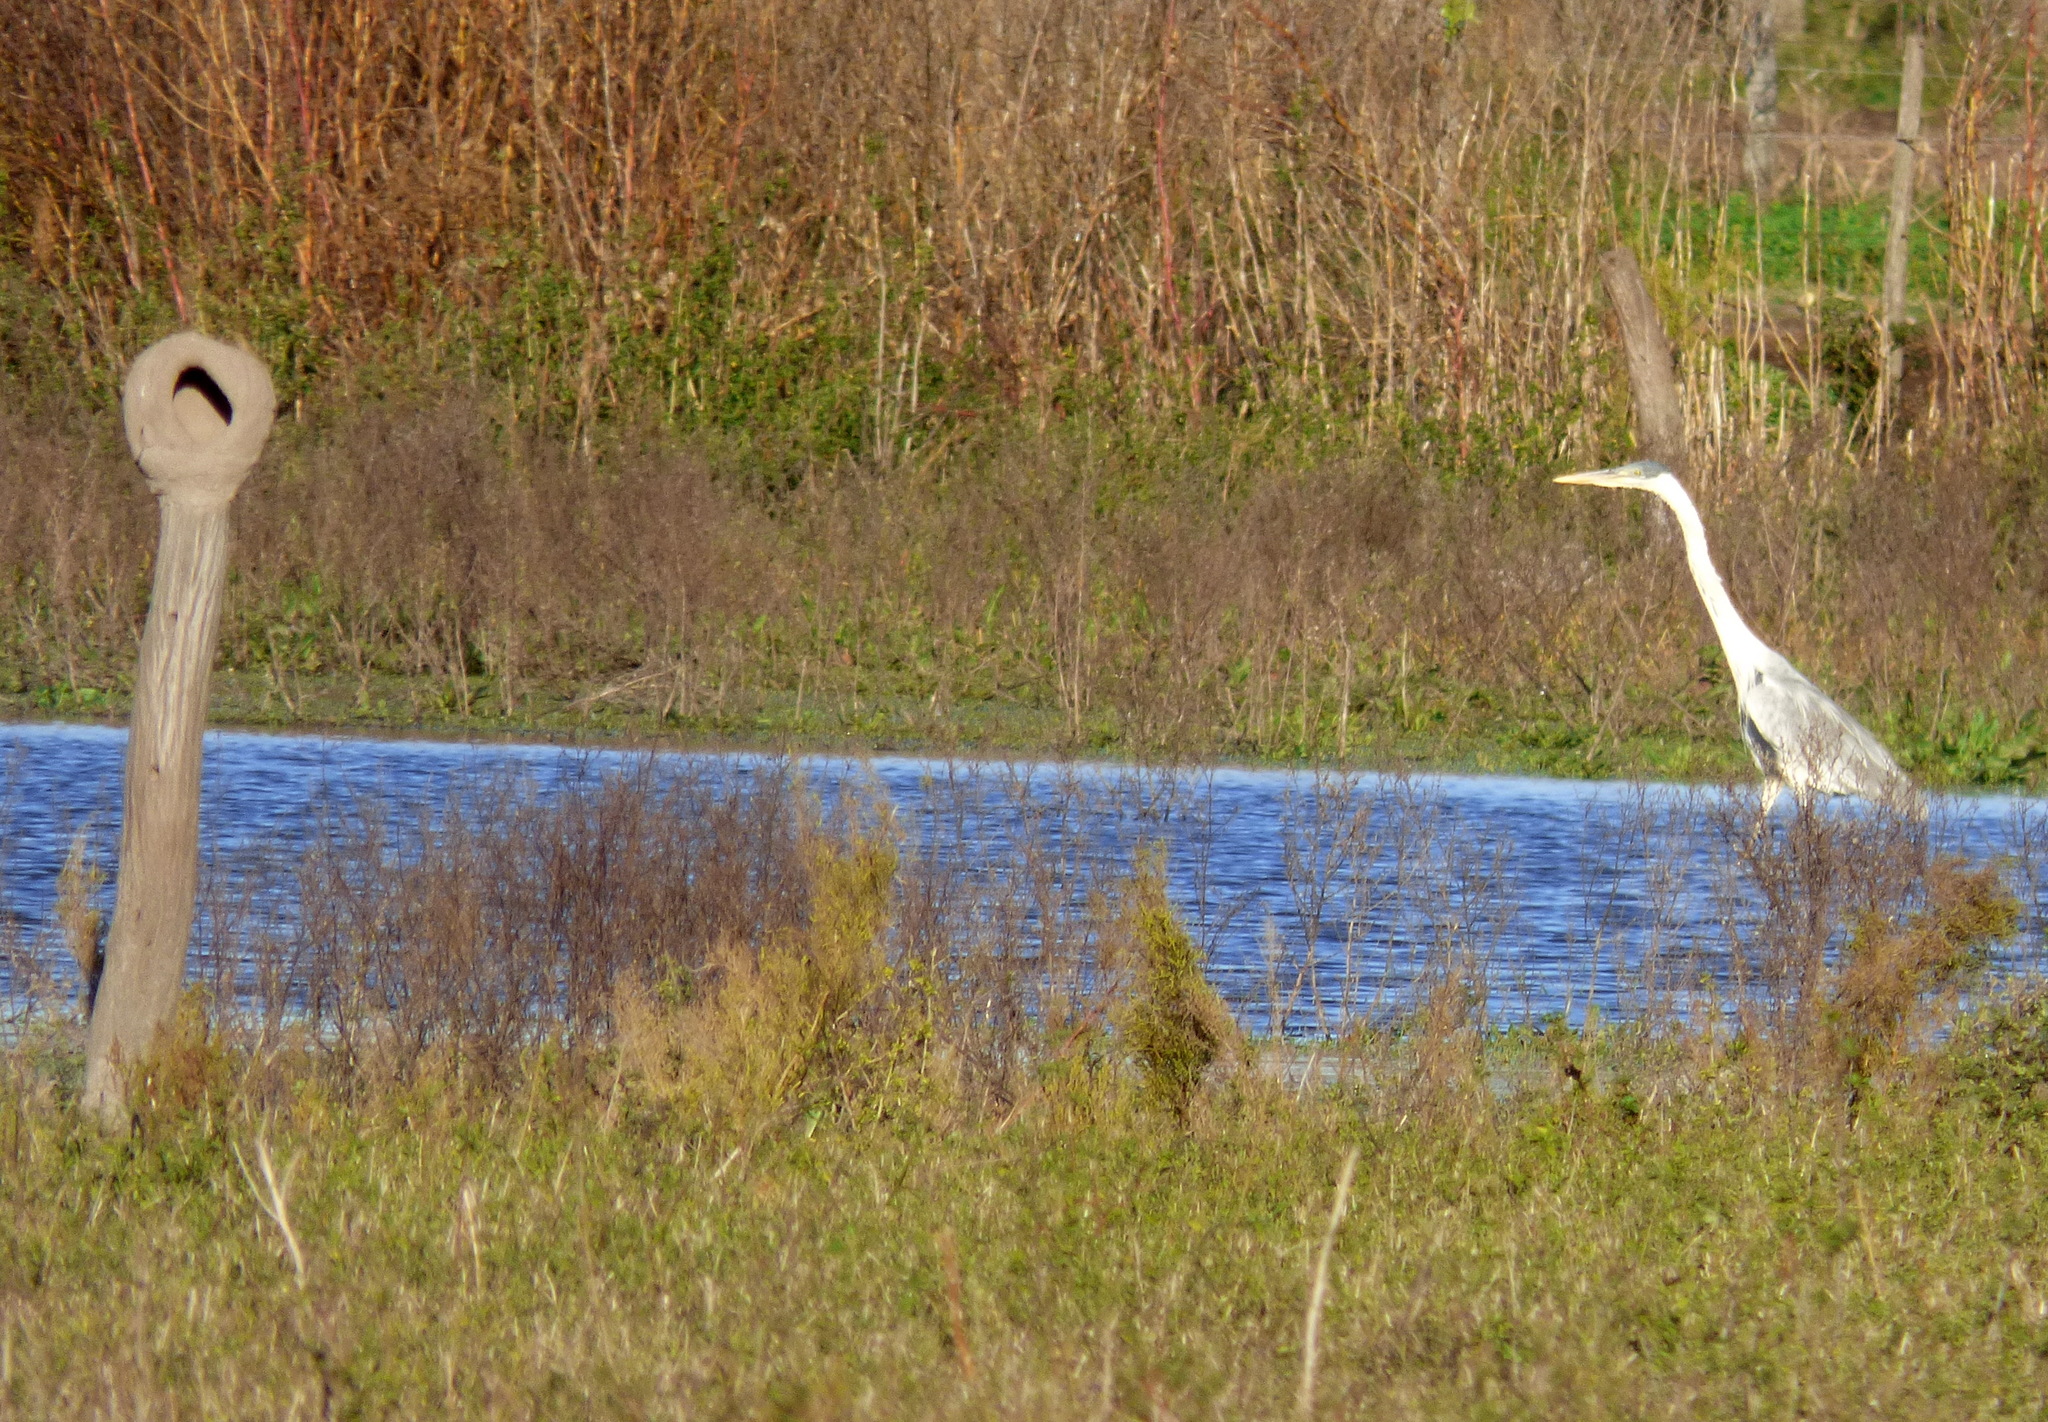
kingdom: Animalia
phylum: Chordata
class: Aves
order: Pelecaniformes
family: Ardeidae
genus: Ardea
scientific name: Ardea cocoi
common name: Cocoi heron
